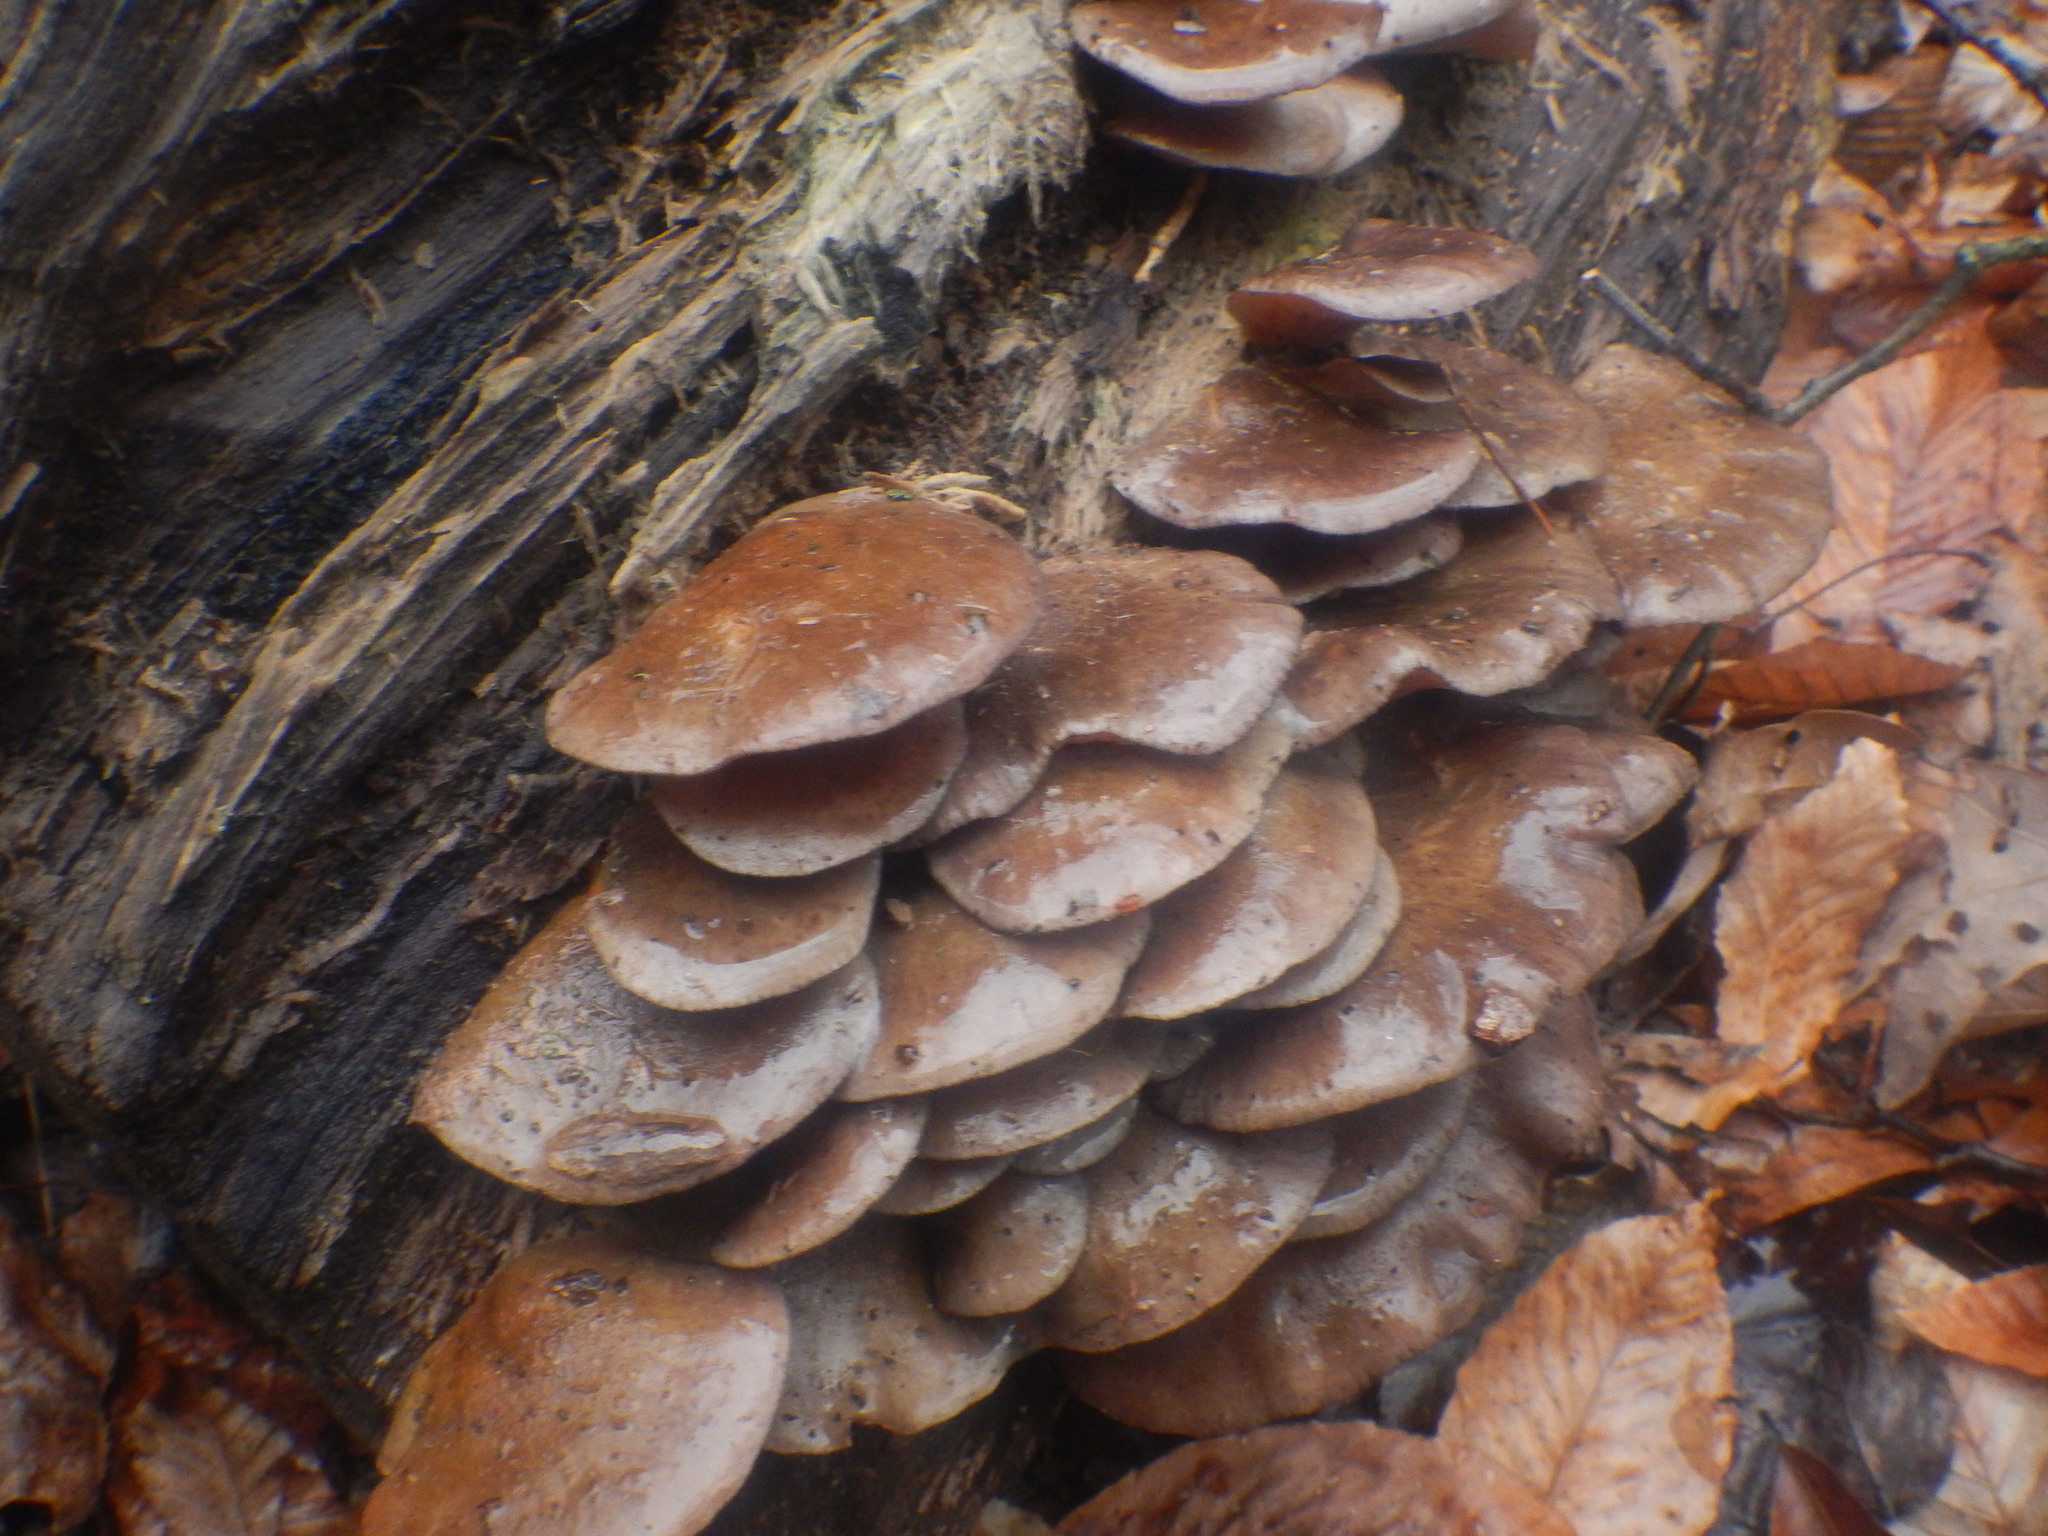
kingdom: Fungi
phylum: Basidiomycota
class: Agaricomycetes
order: Agaricales
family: Sarcomyxaceae
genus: Sarcomyxa
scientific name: Sarcomyxa serotina
